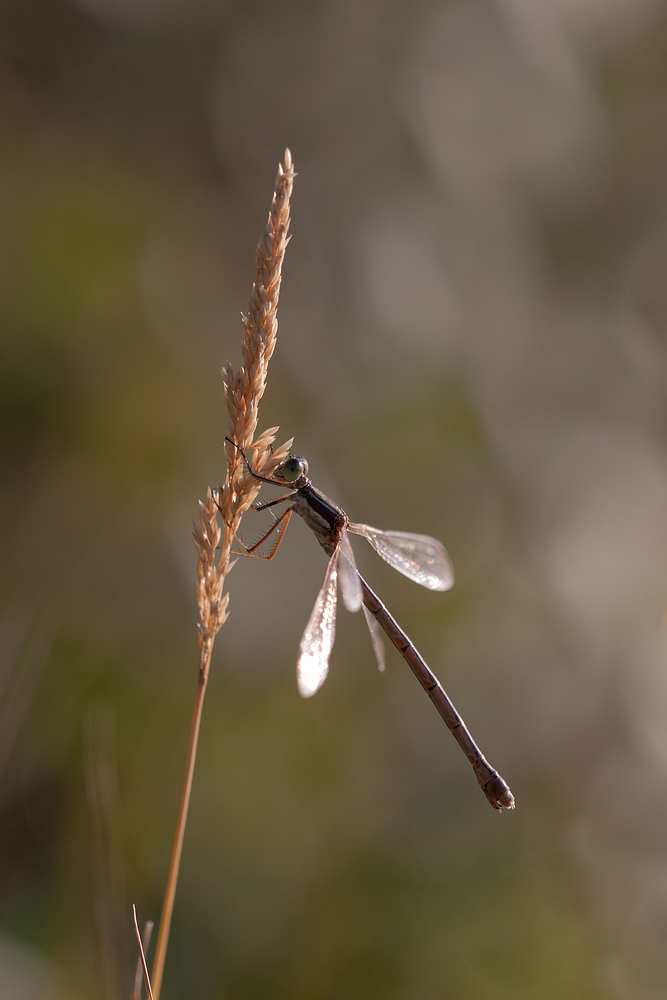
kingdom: Animalia
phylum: Arthropoda
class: Insecta
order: Odonata
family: Lestidae
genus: Lestes
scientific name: Lestes barbarus
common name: Migrant spreadwing
